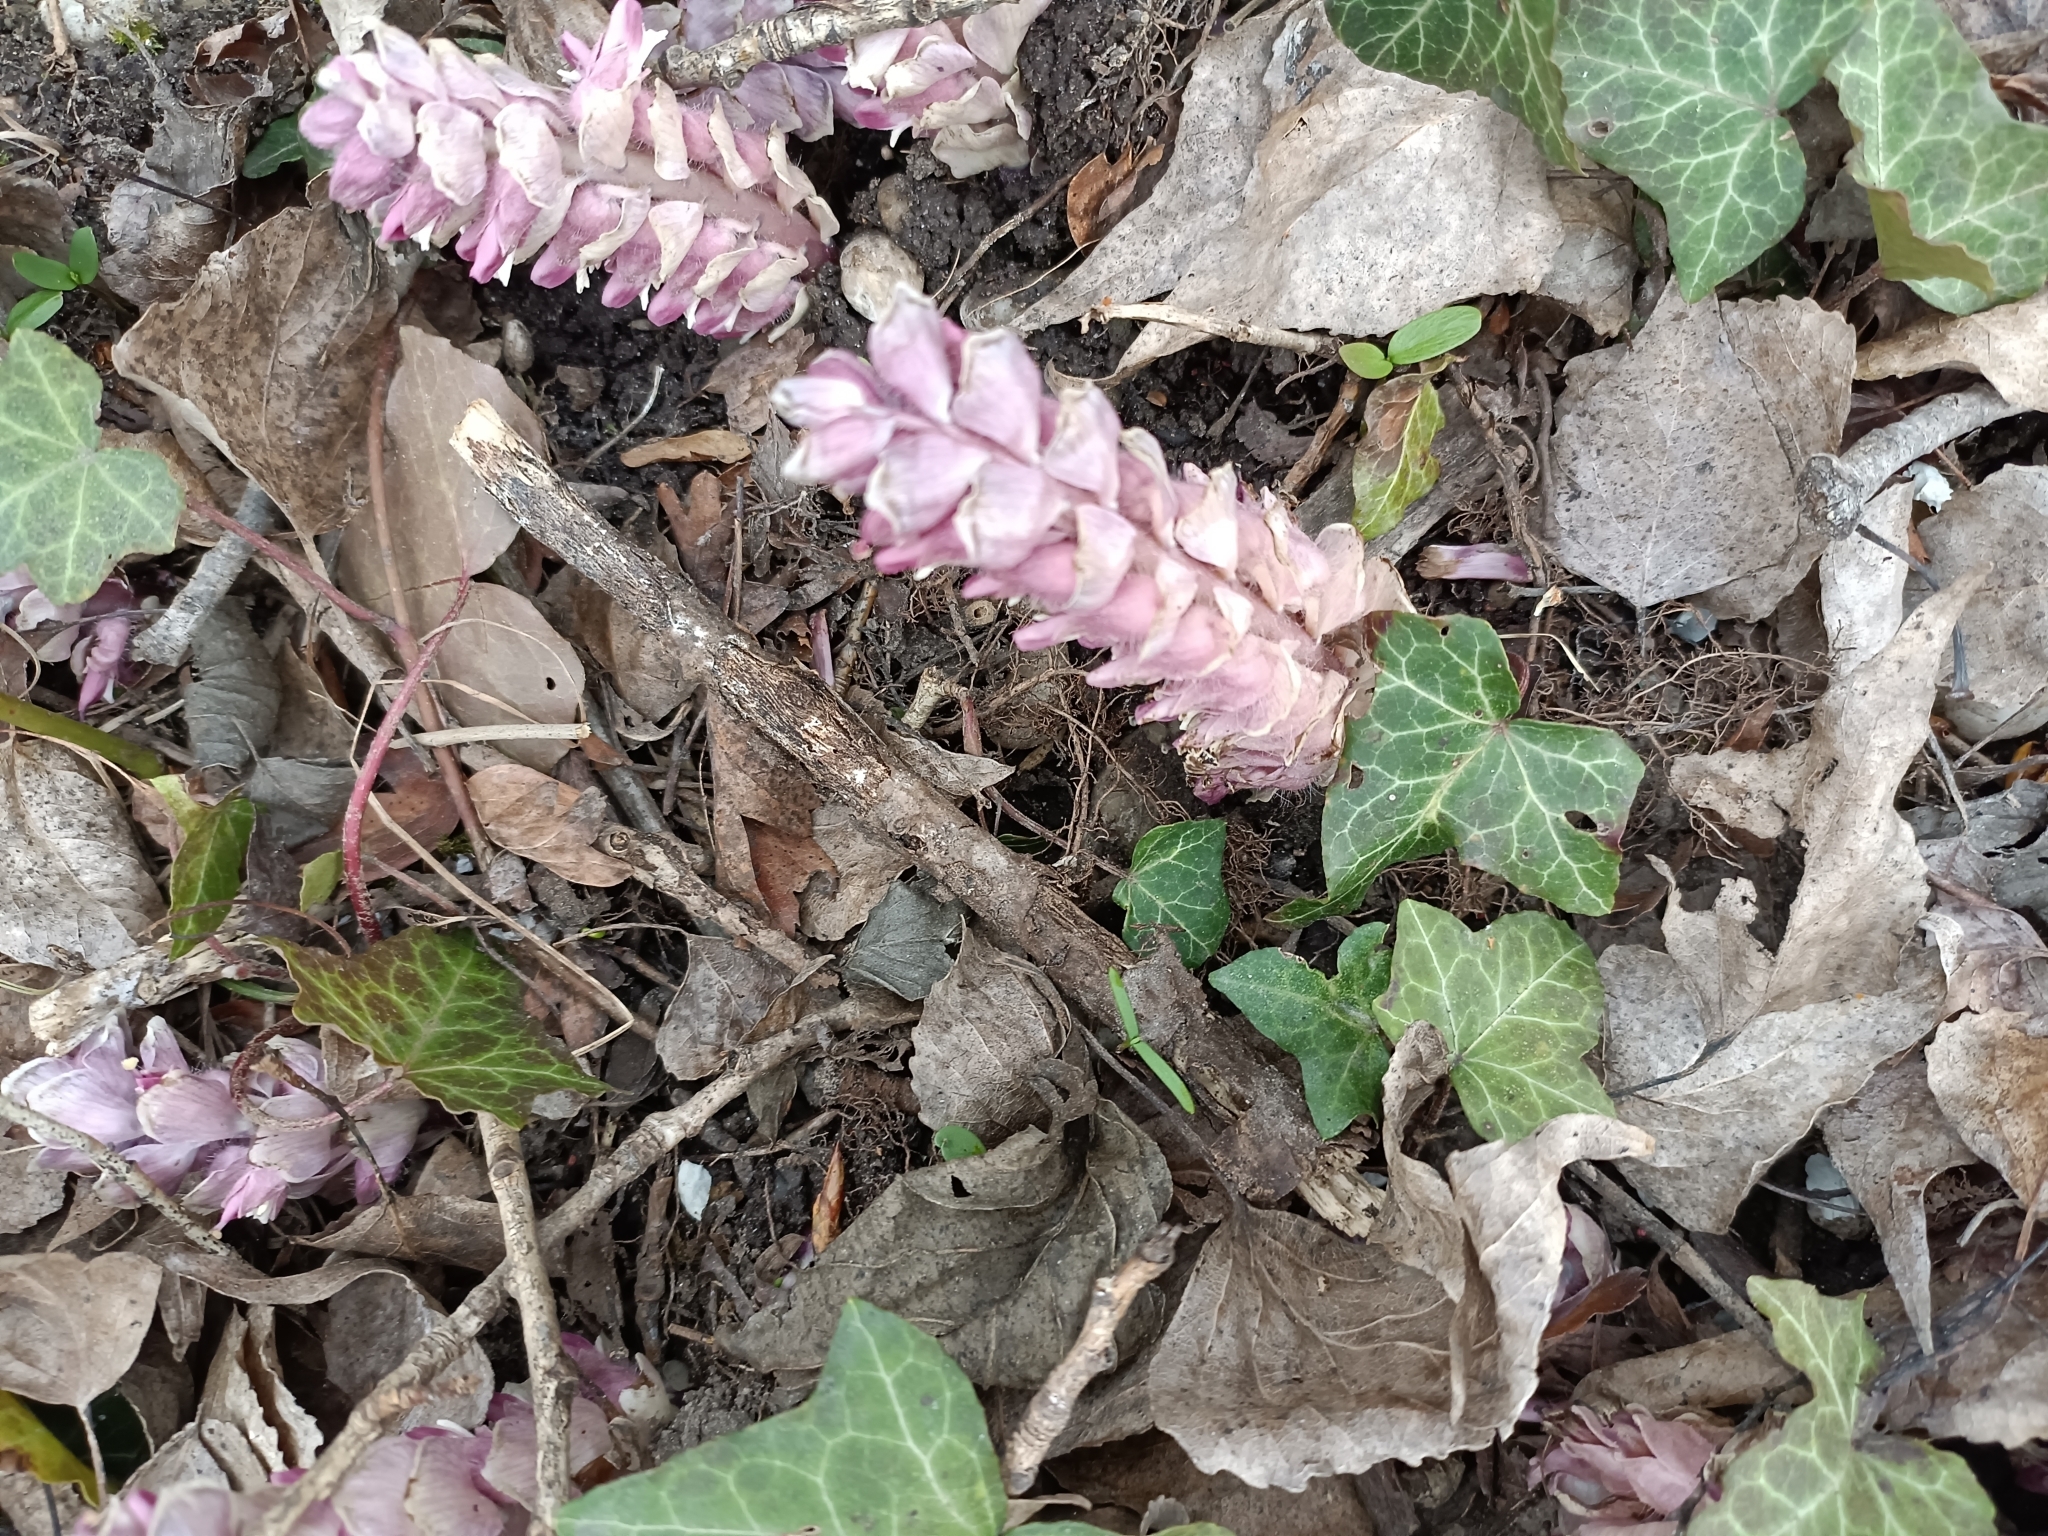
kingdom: Plantae
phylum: Tracheophyta
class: Magnoliopsida
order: Lamiales
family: Orobanchaceae
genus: Lathraea
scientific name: Lathraea squamaria
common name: Toothwort
